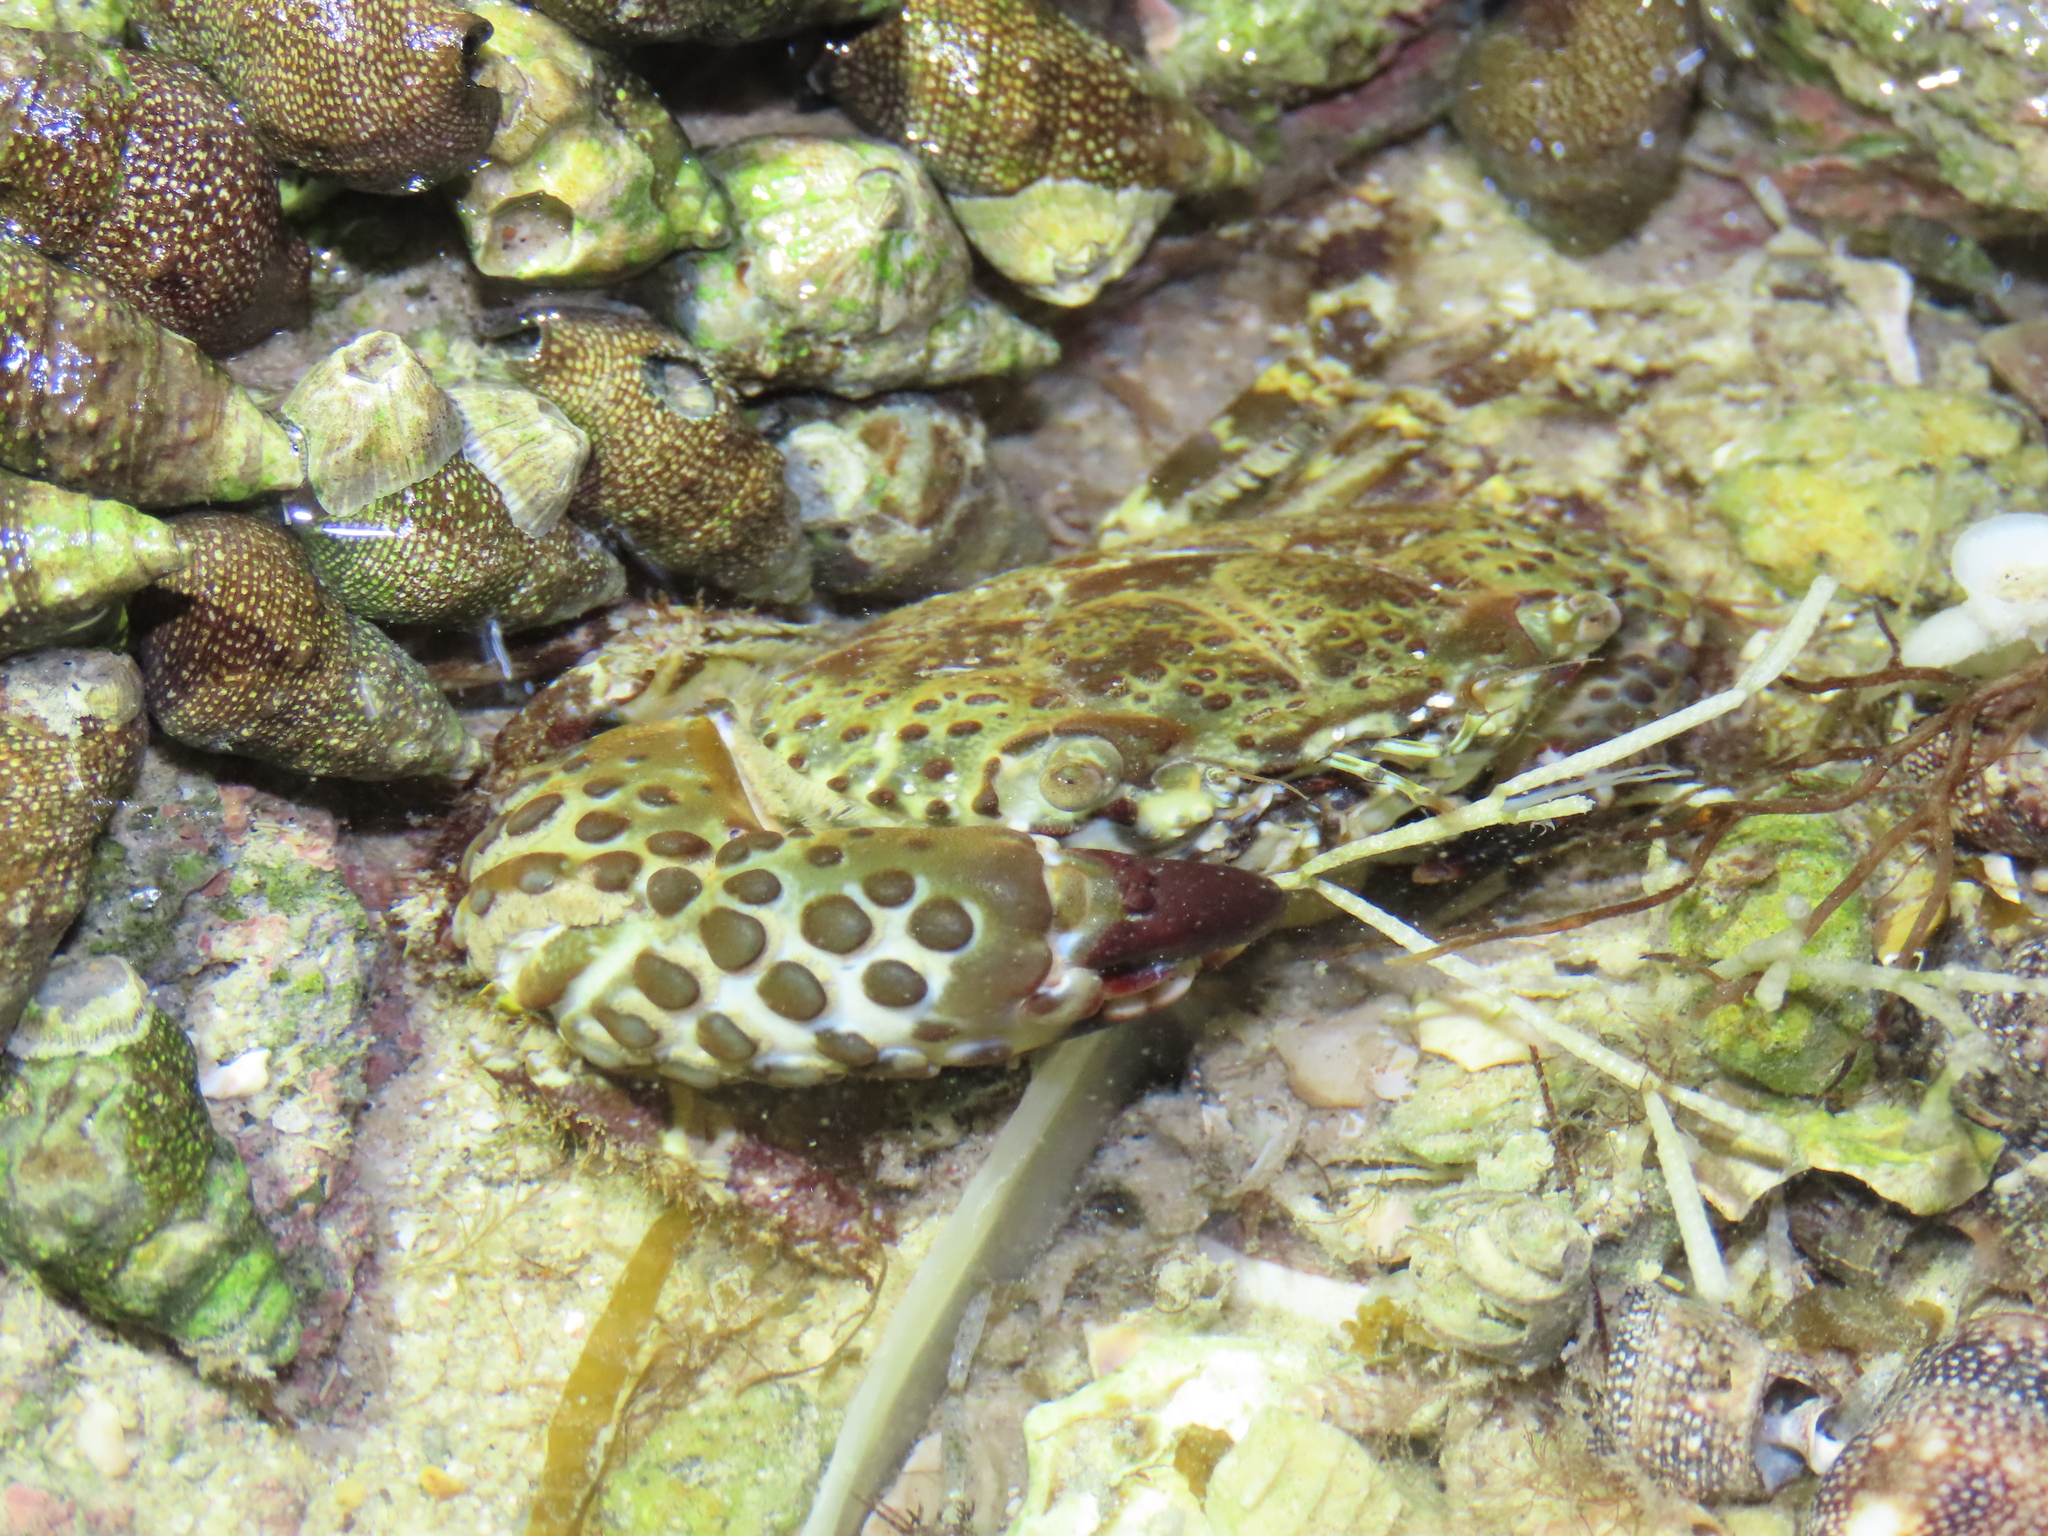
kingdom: Animalia
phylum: Arthropoda
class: Malacostraca
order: Decapoda
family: Eriphiidae
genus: Eriphia
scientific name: Eriphia squamata
